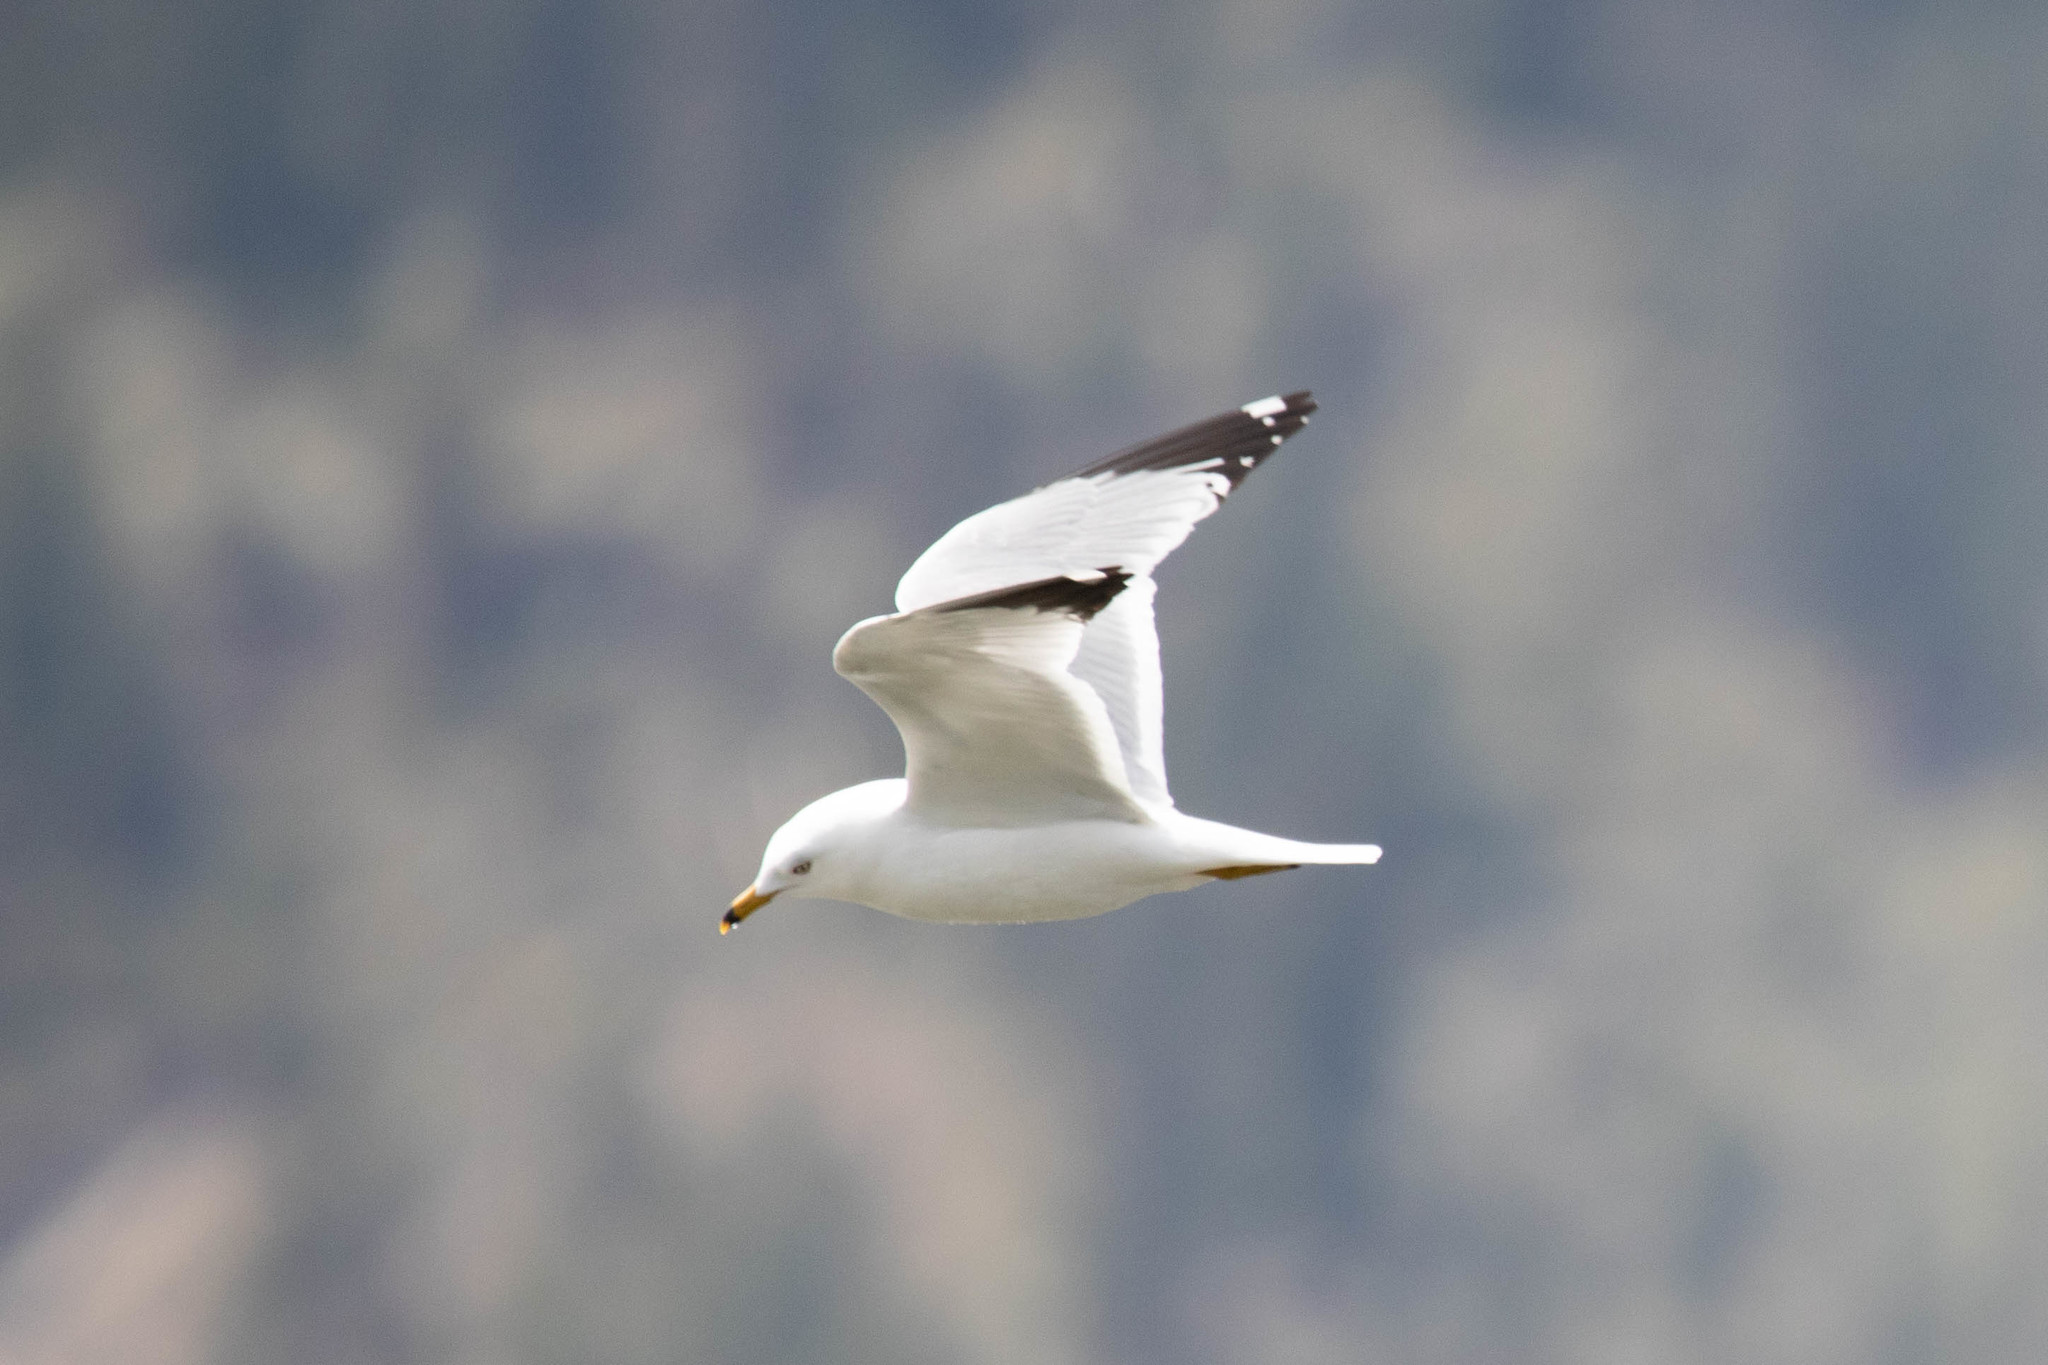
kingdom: Animalia
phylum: Chordata
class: Aves
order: Charadriiformes
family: Laridae
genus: Larus
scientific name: Larus delawarensis
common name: Ring-billed gull
